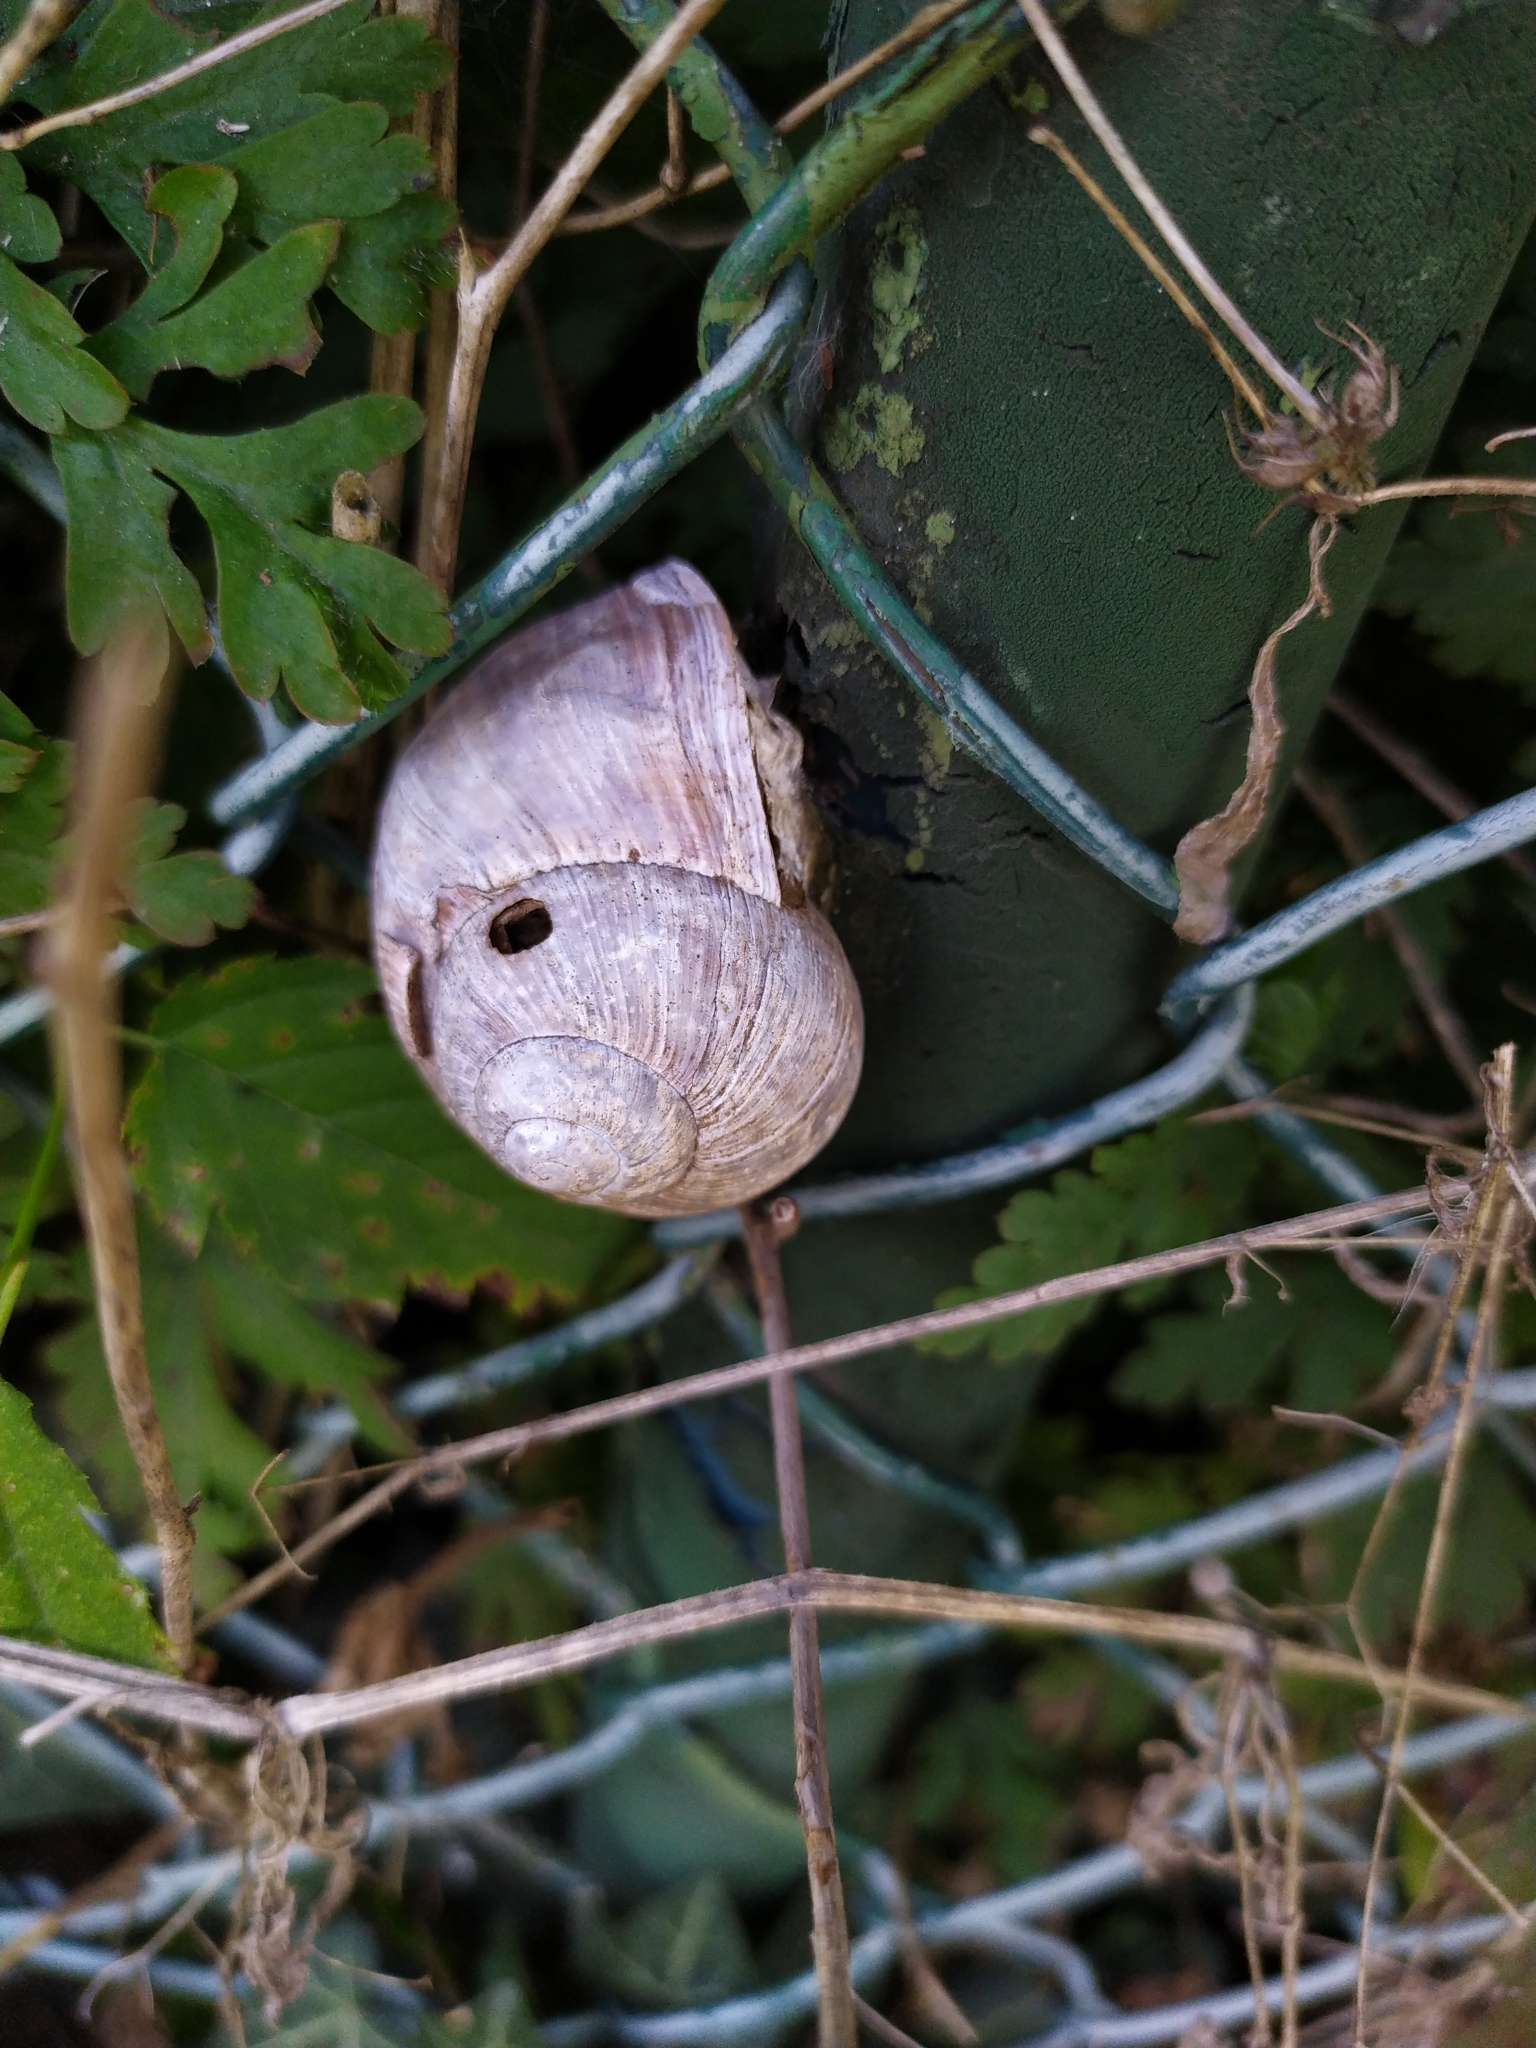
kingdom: Animalia
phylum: Mollusca
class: Gastropoda
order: Stylommatophora
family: Helicidae
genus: Helix
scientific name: Helix pomatia
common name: Roman snail
